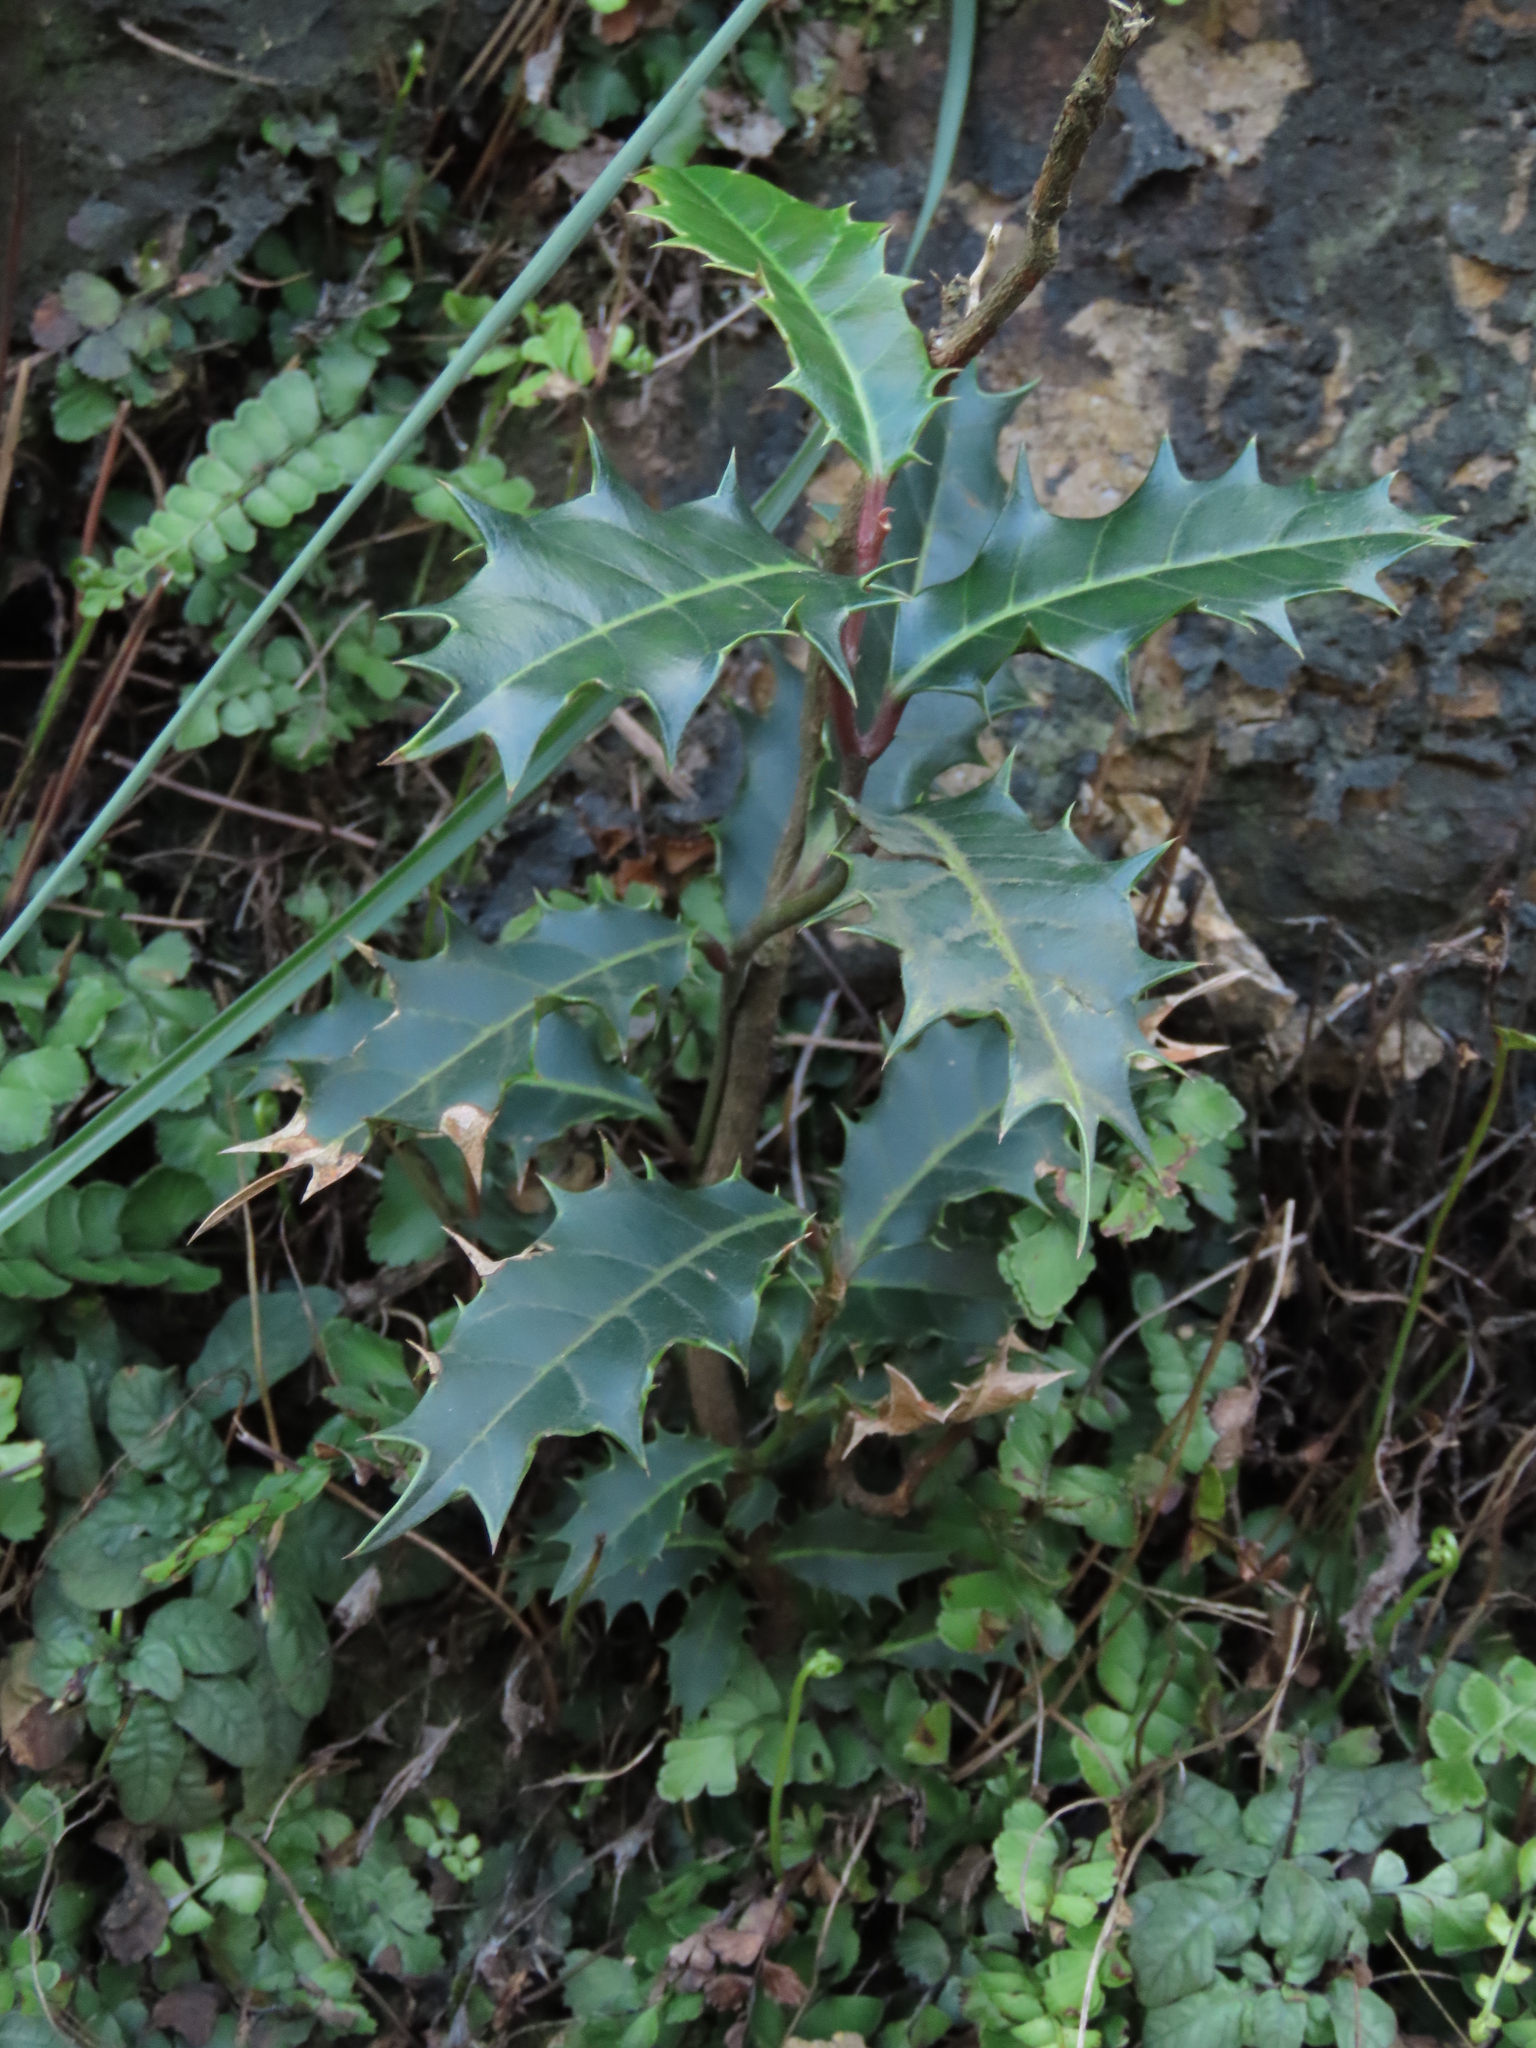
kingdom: Plantae
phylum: Tracheophyta
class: Magnoliopsida
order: Saxifragales
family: Iteaceae
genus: Itea
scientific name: Itea oldhamii
